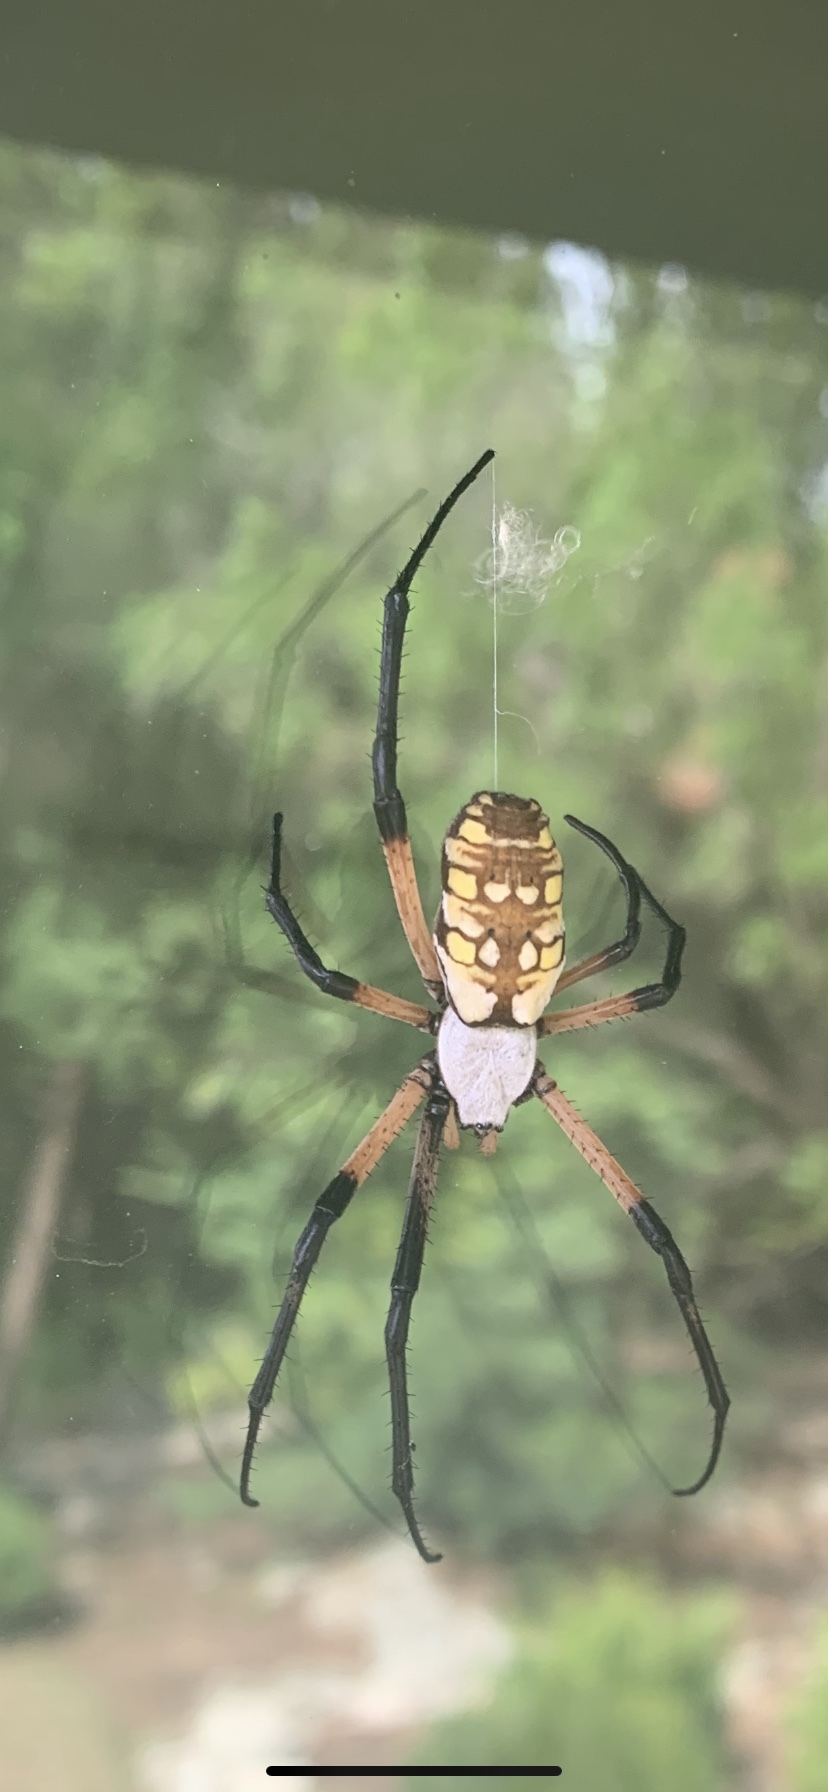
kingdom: Animalia
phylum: Arthropoda
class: Arachnida
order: Araneae
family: Araneidae
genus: Argiope
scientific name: Argiope aurantia
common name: Orb weavers
